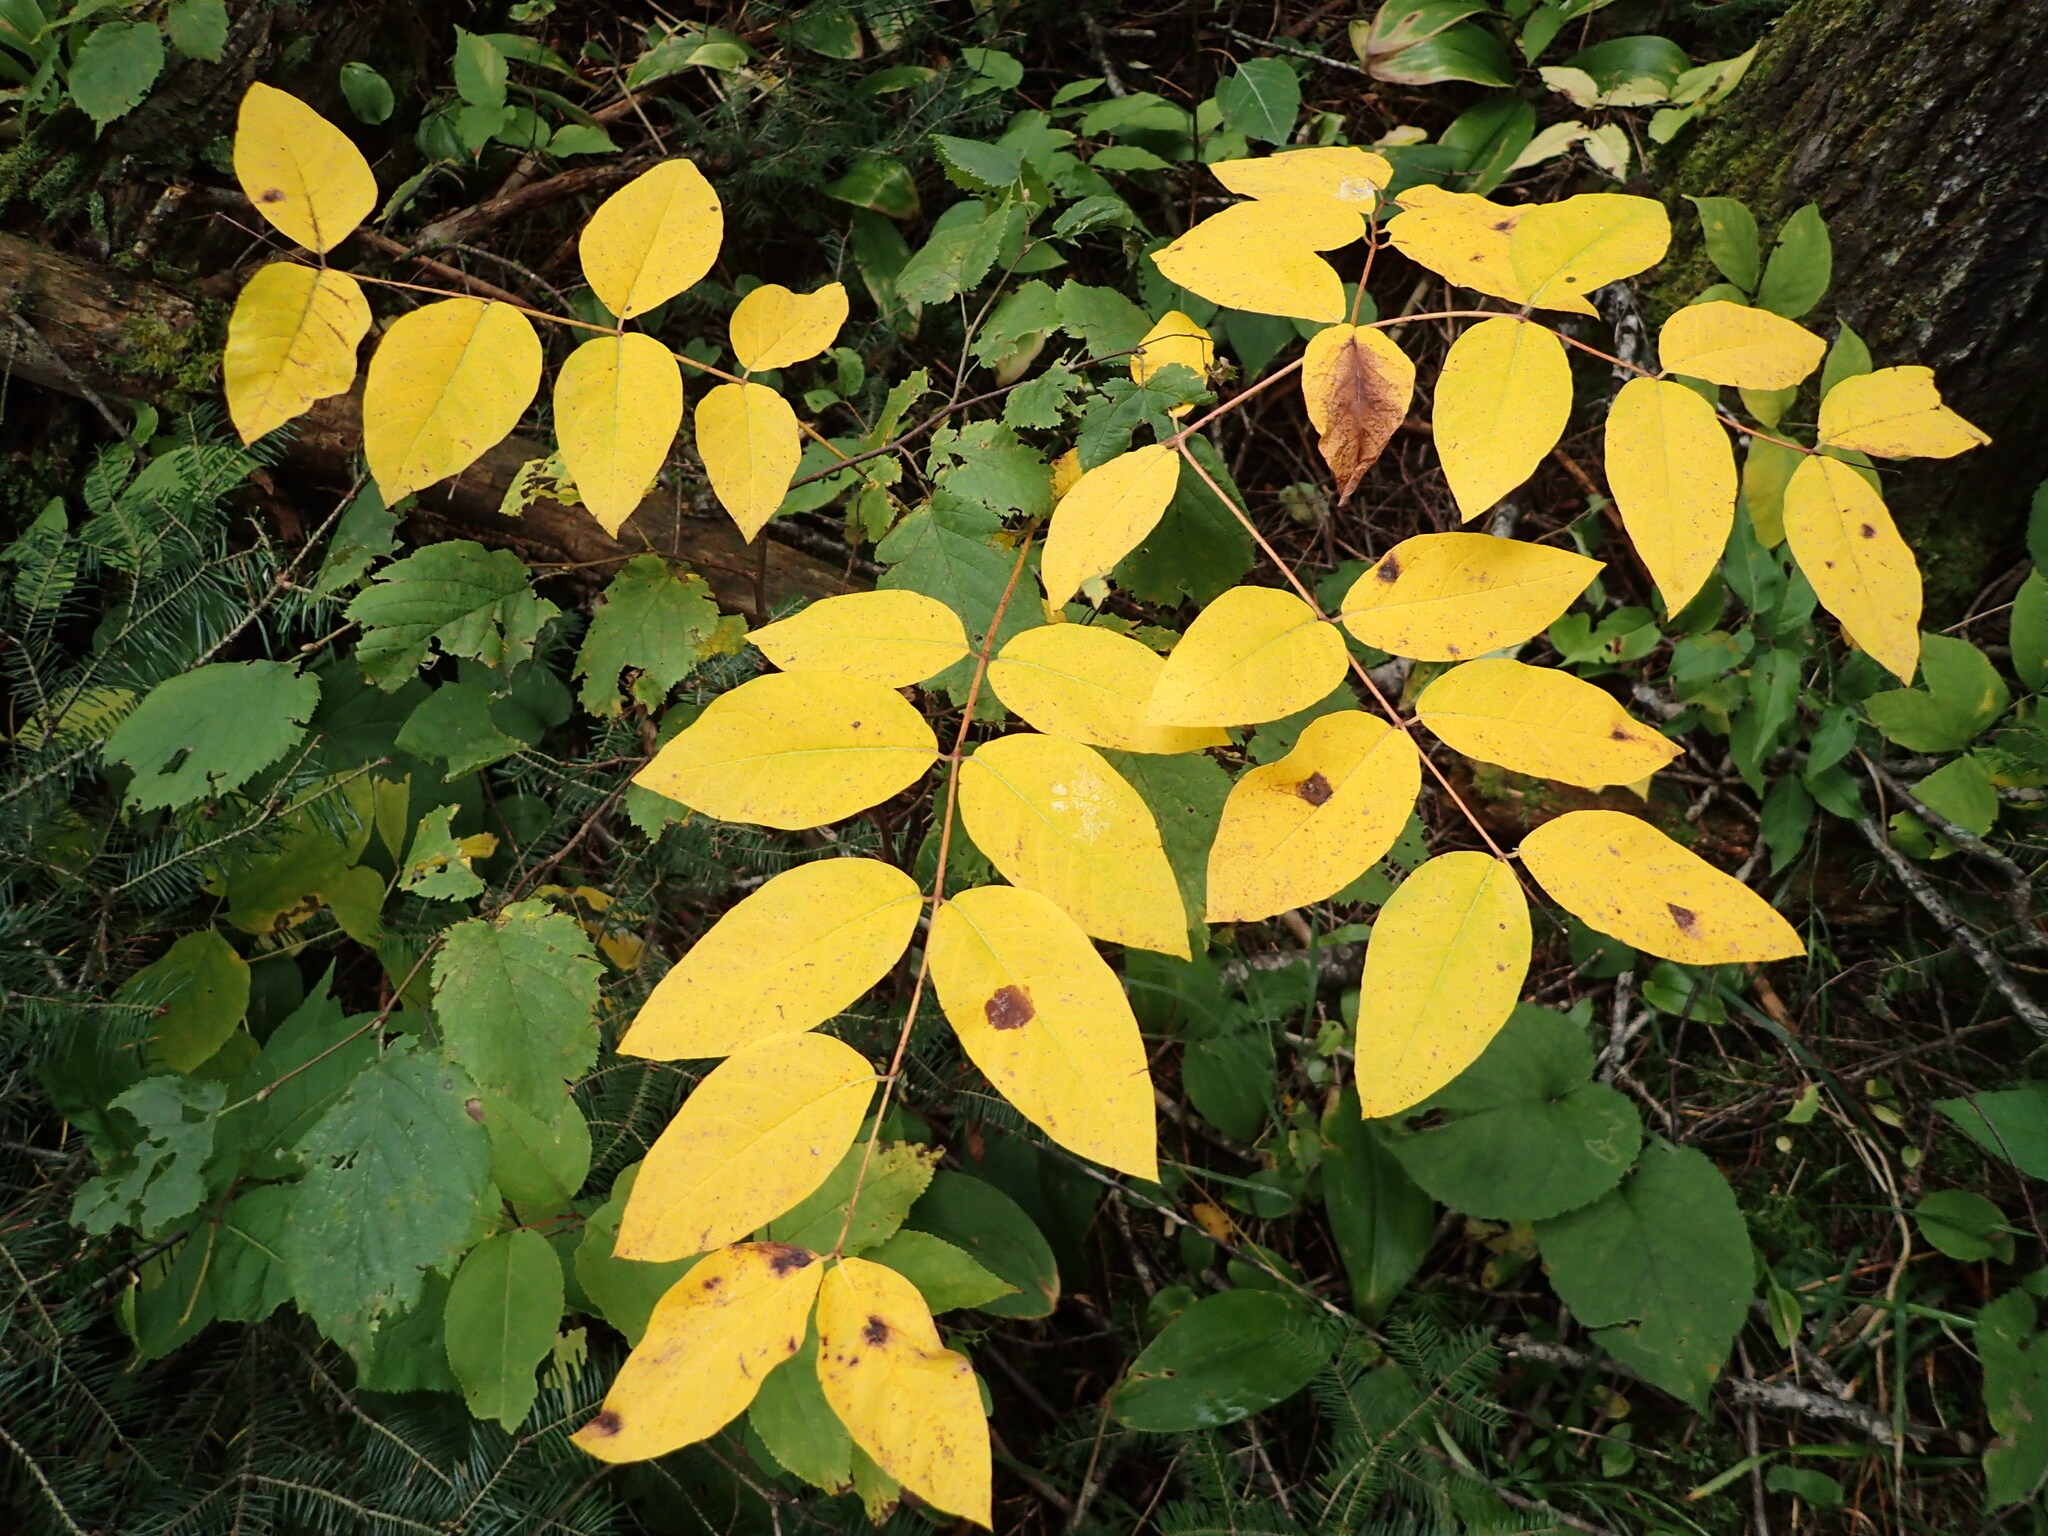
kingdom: Plantae
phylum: Tracheophyta
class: Magnoliopsida
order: Gentianales
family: Apocynaceae
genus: Apocynum
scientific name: Apocynum androsaemifolium
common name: Spreading dogbane
